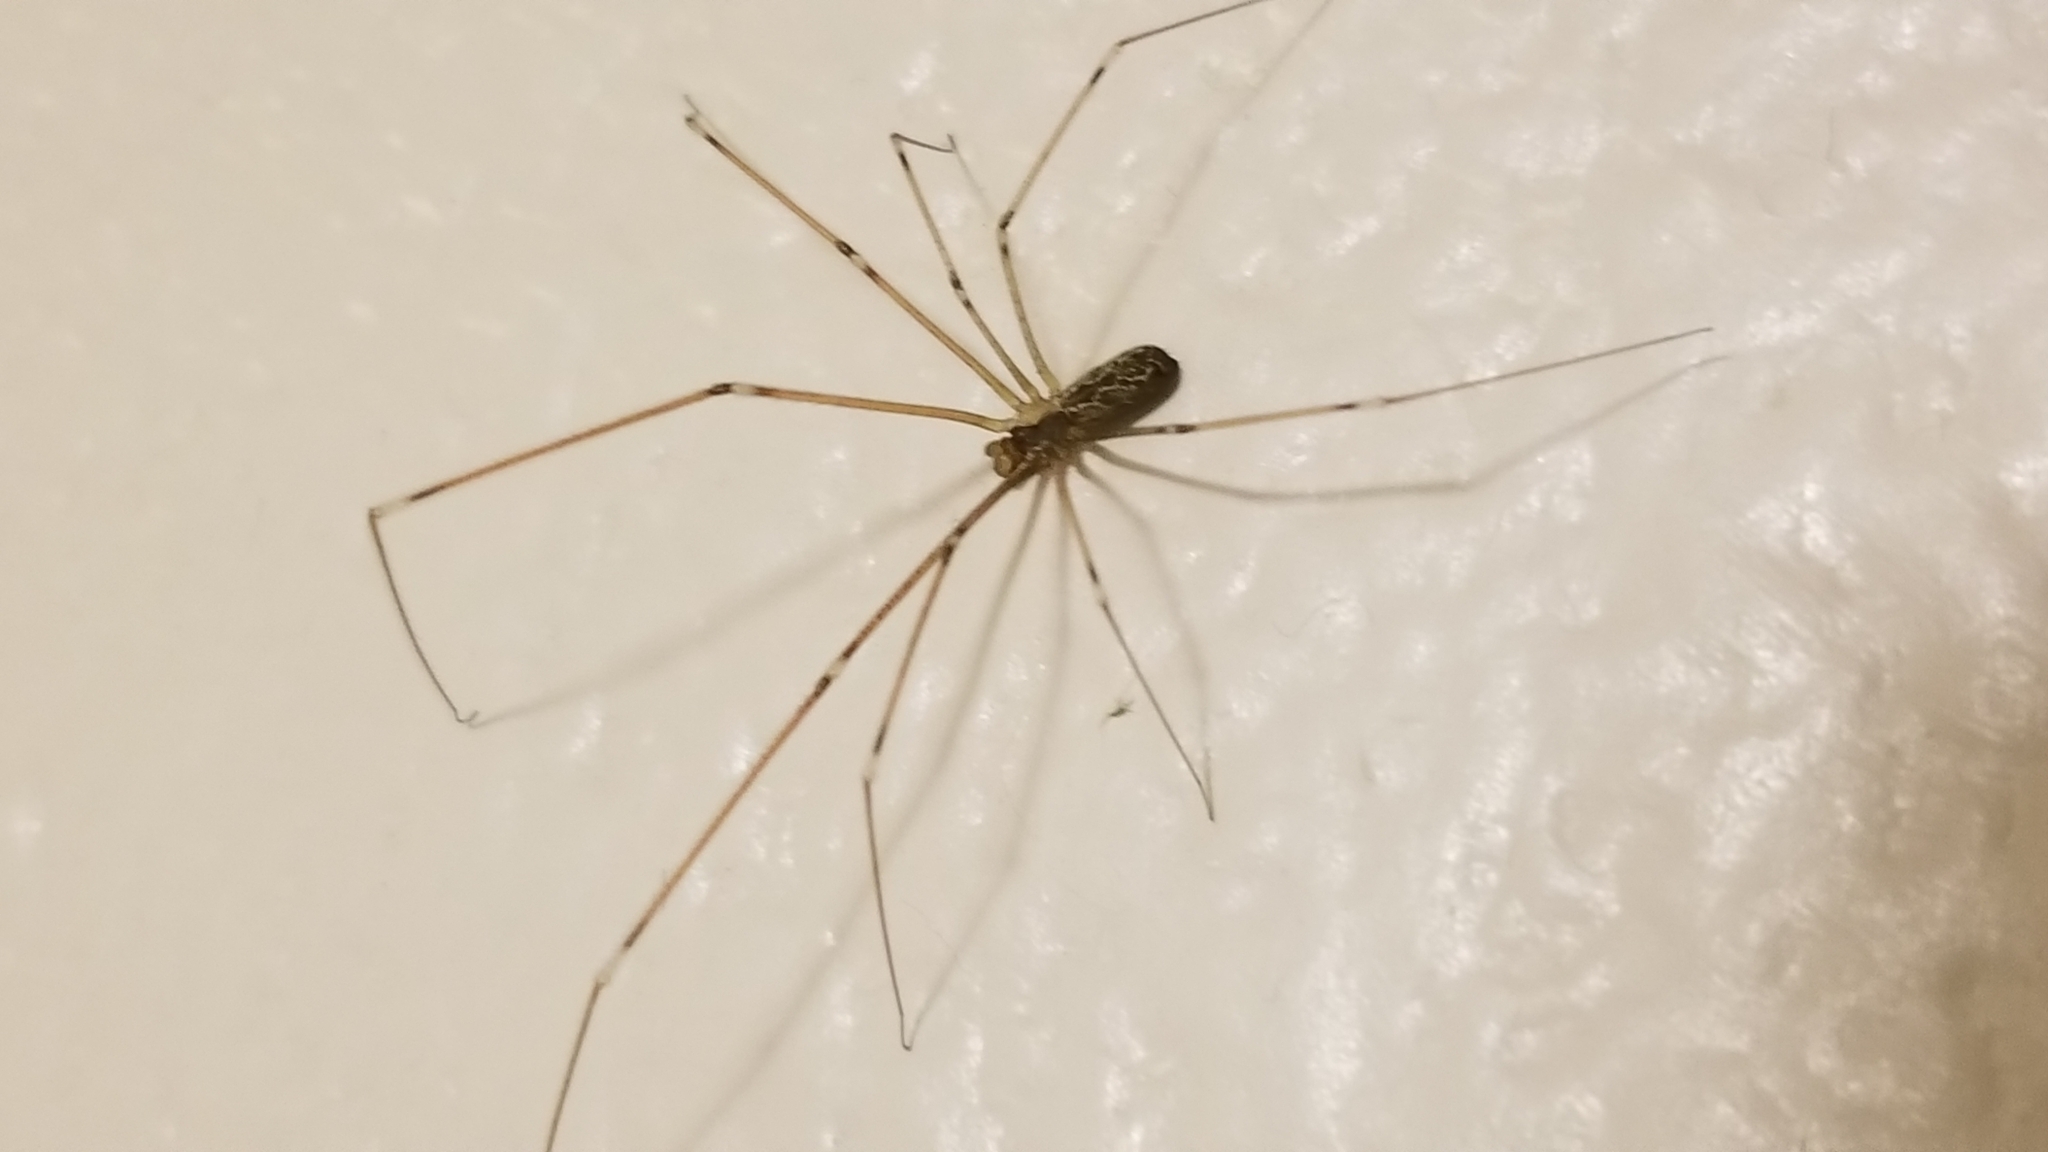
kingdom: Animalia
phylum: Arthropoda
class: Arachnida
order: Araneae
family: Pholcidae
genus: Holocnemus
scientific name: Holocnemus pluchei
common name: Marbled cellar spider
